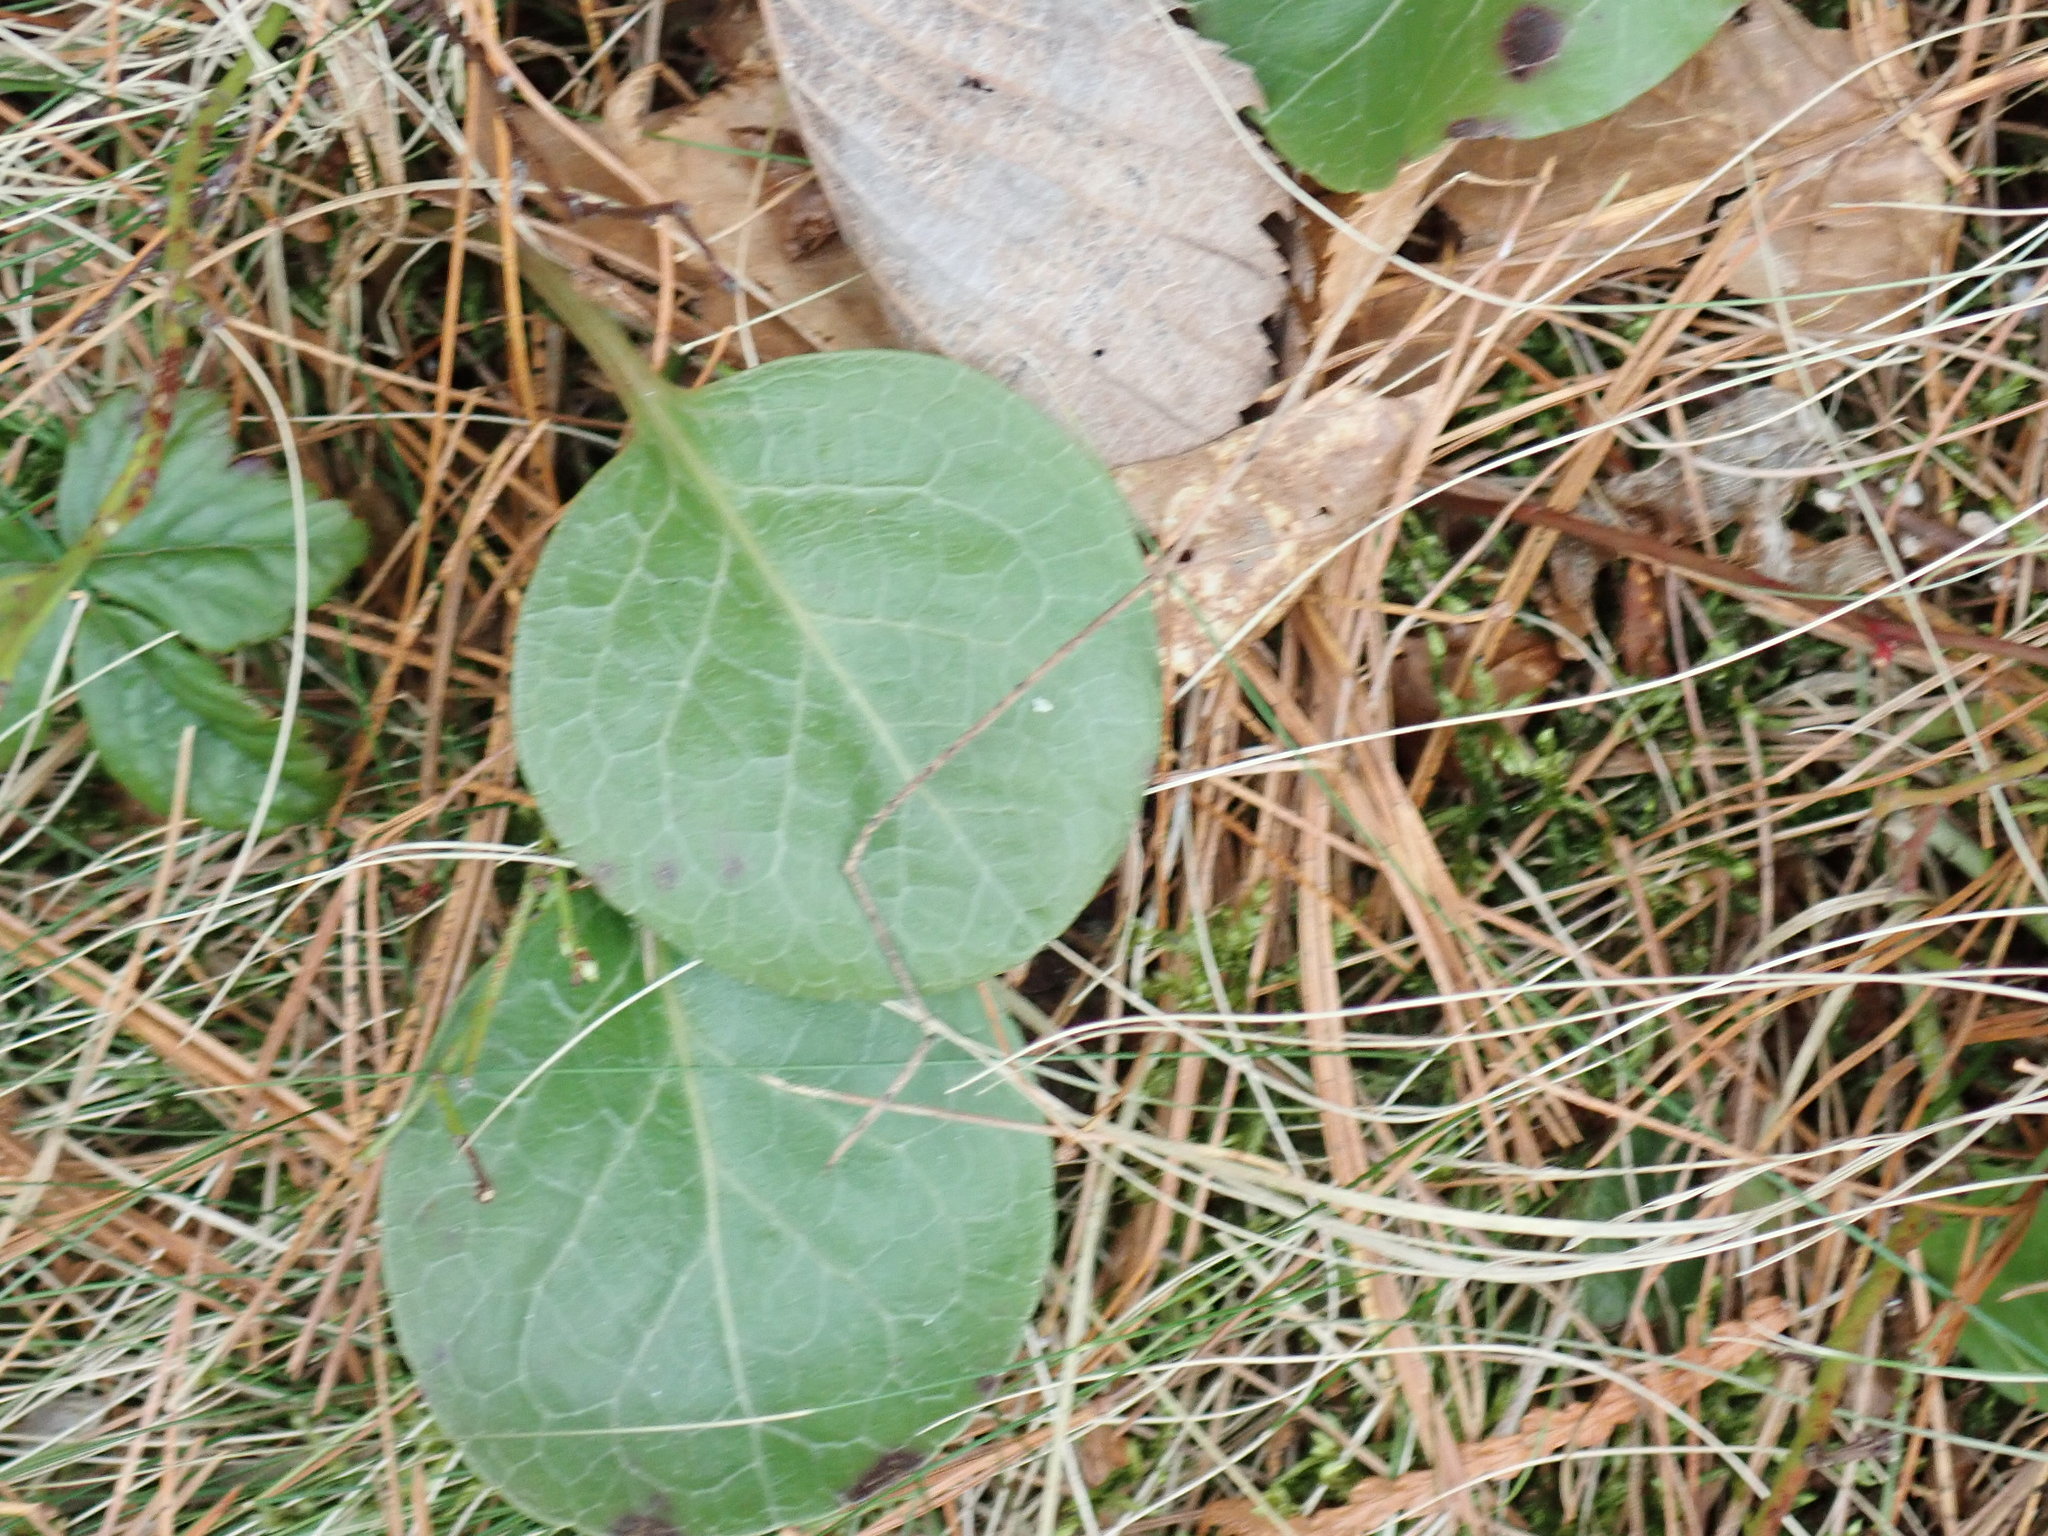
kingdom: Plantae
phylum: Tracheophyta
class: Magnoliopsida
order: Ericales
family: Ericaceae
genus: Pyrola
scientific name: Pyrola americana
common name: American wintergreen
